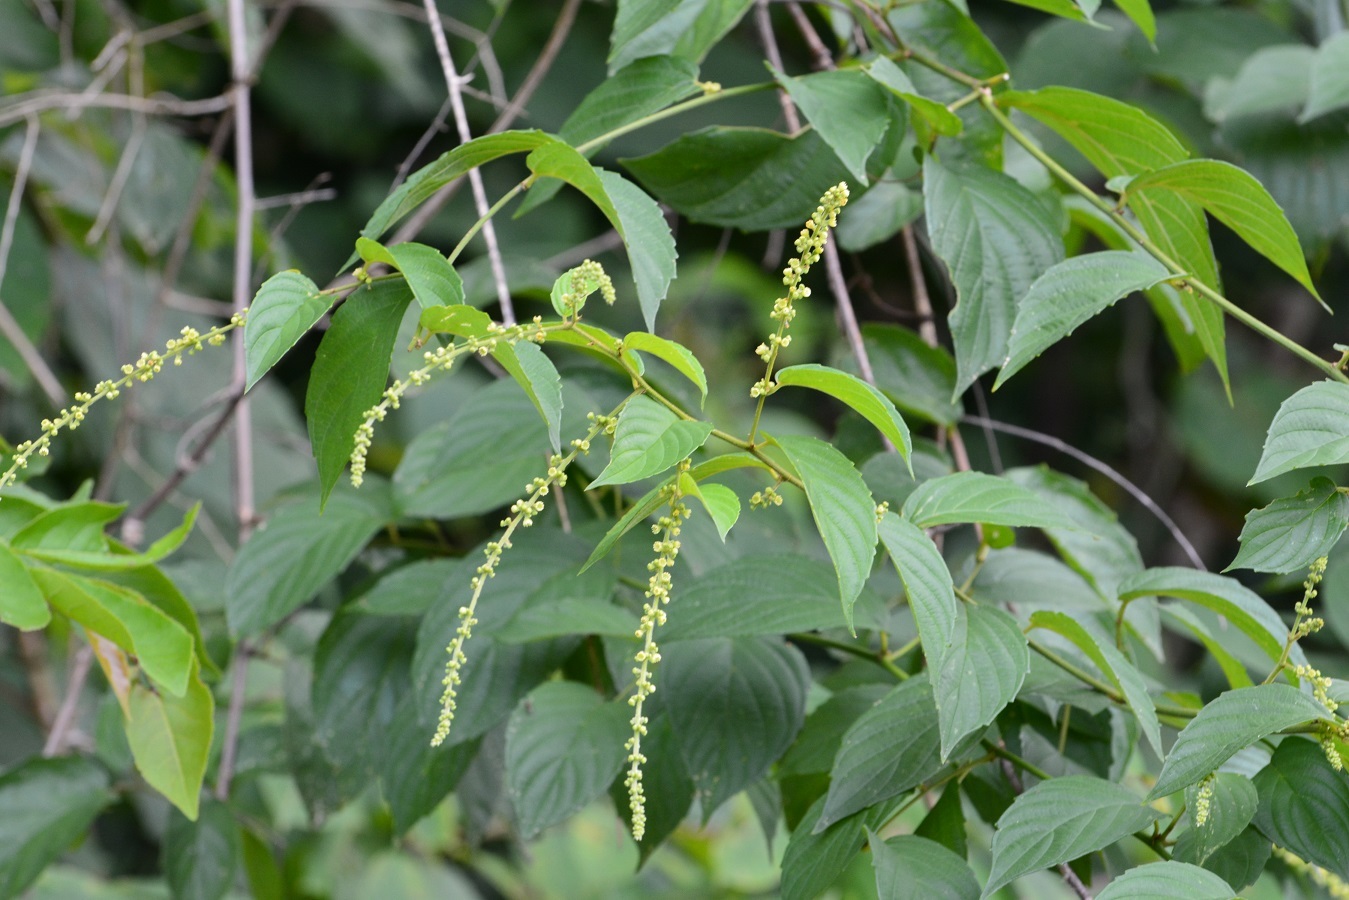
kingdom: Plantae
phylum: Tracheophyta
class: Magnoliopsida
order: Rosales
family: Rhamnaceae
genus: Gouania
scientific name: Gouania lupuloides
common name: Chewstick
